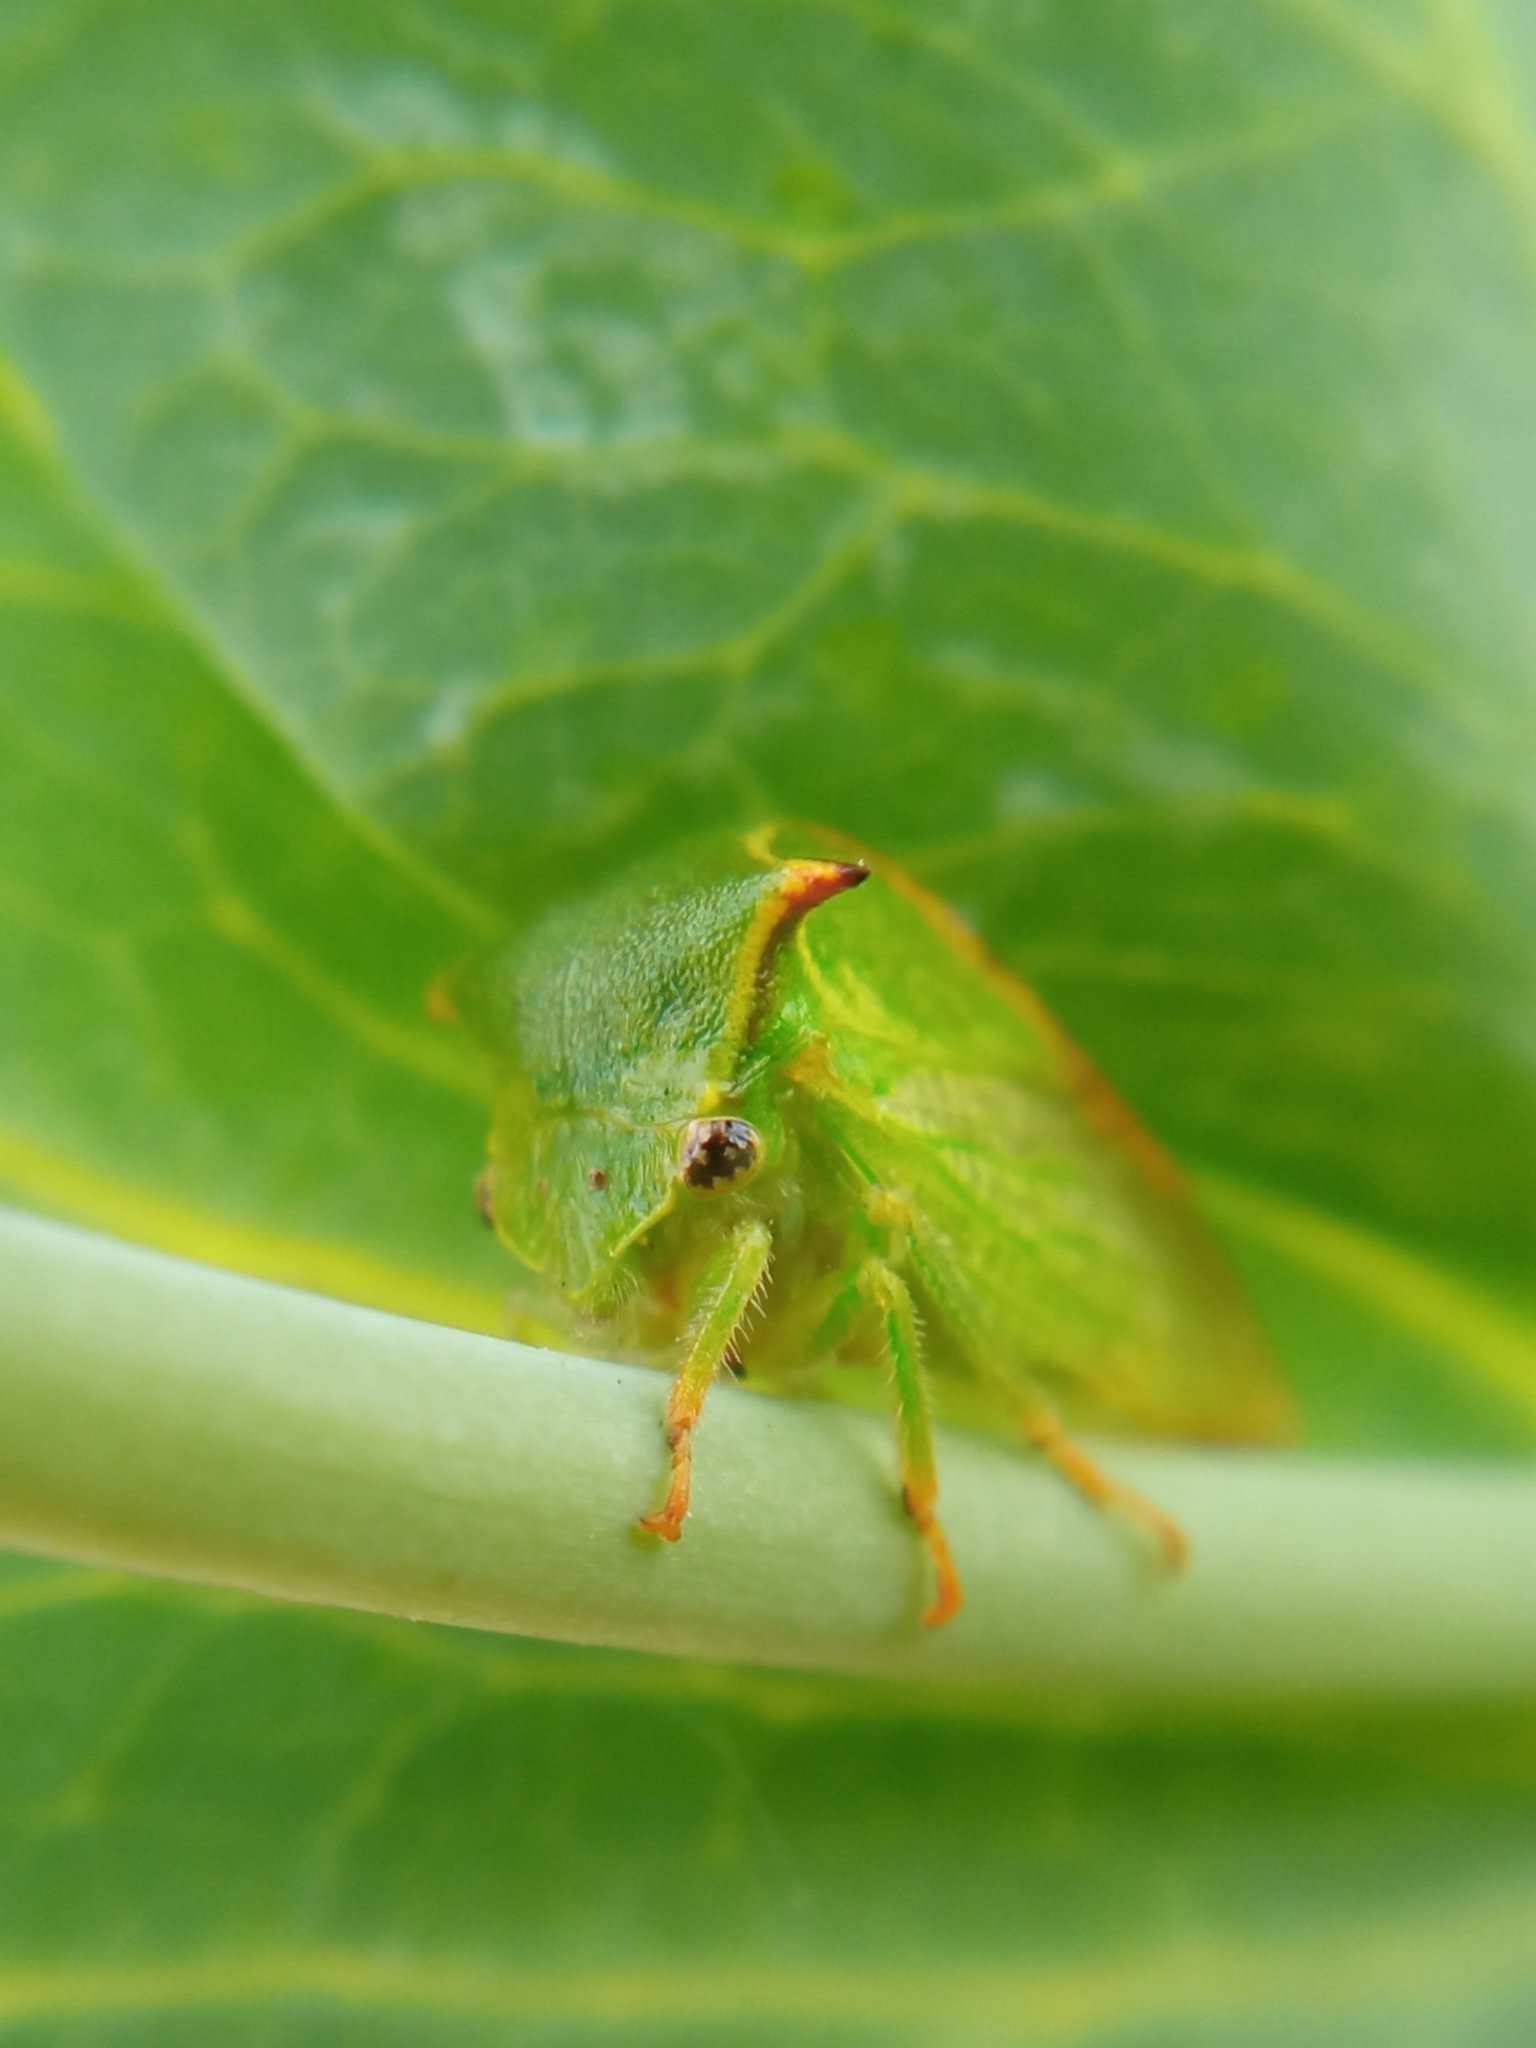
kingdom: Animalia
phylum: Arthropoda
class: Insecta
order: Hemiptera
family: Membracidae
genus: Stictocephala
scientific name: Stictocephala bisonia
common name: American buffalo treehopper
